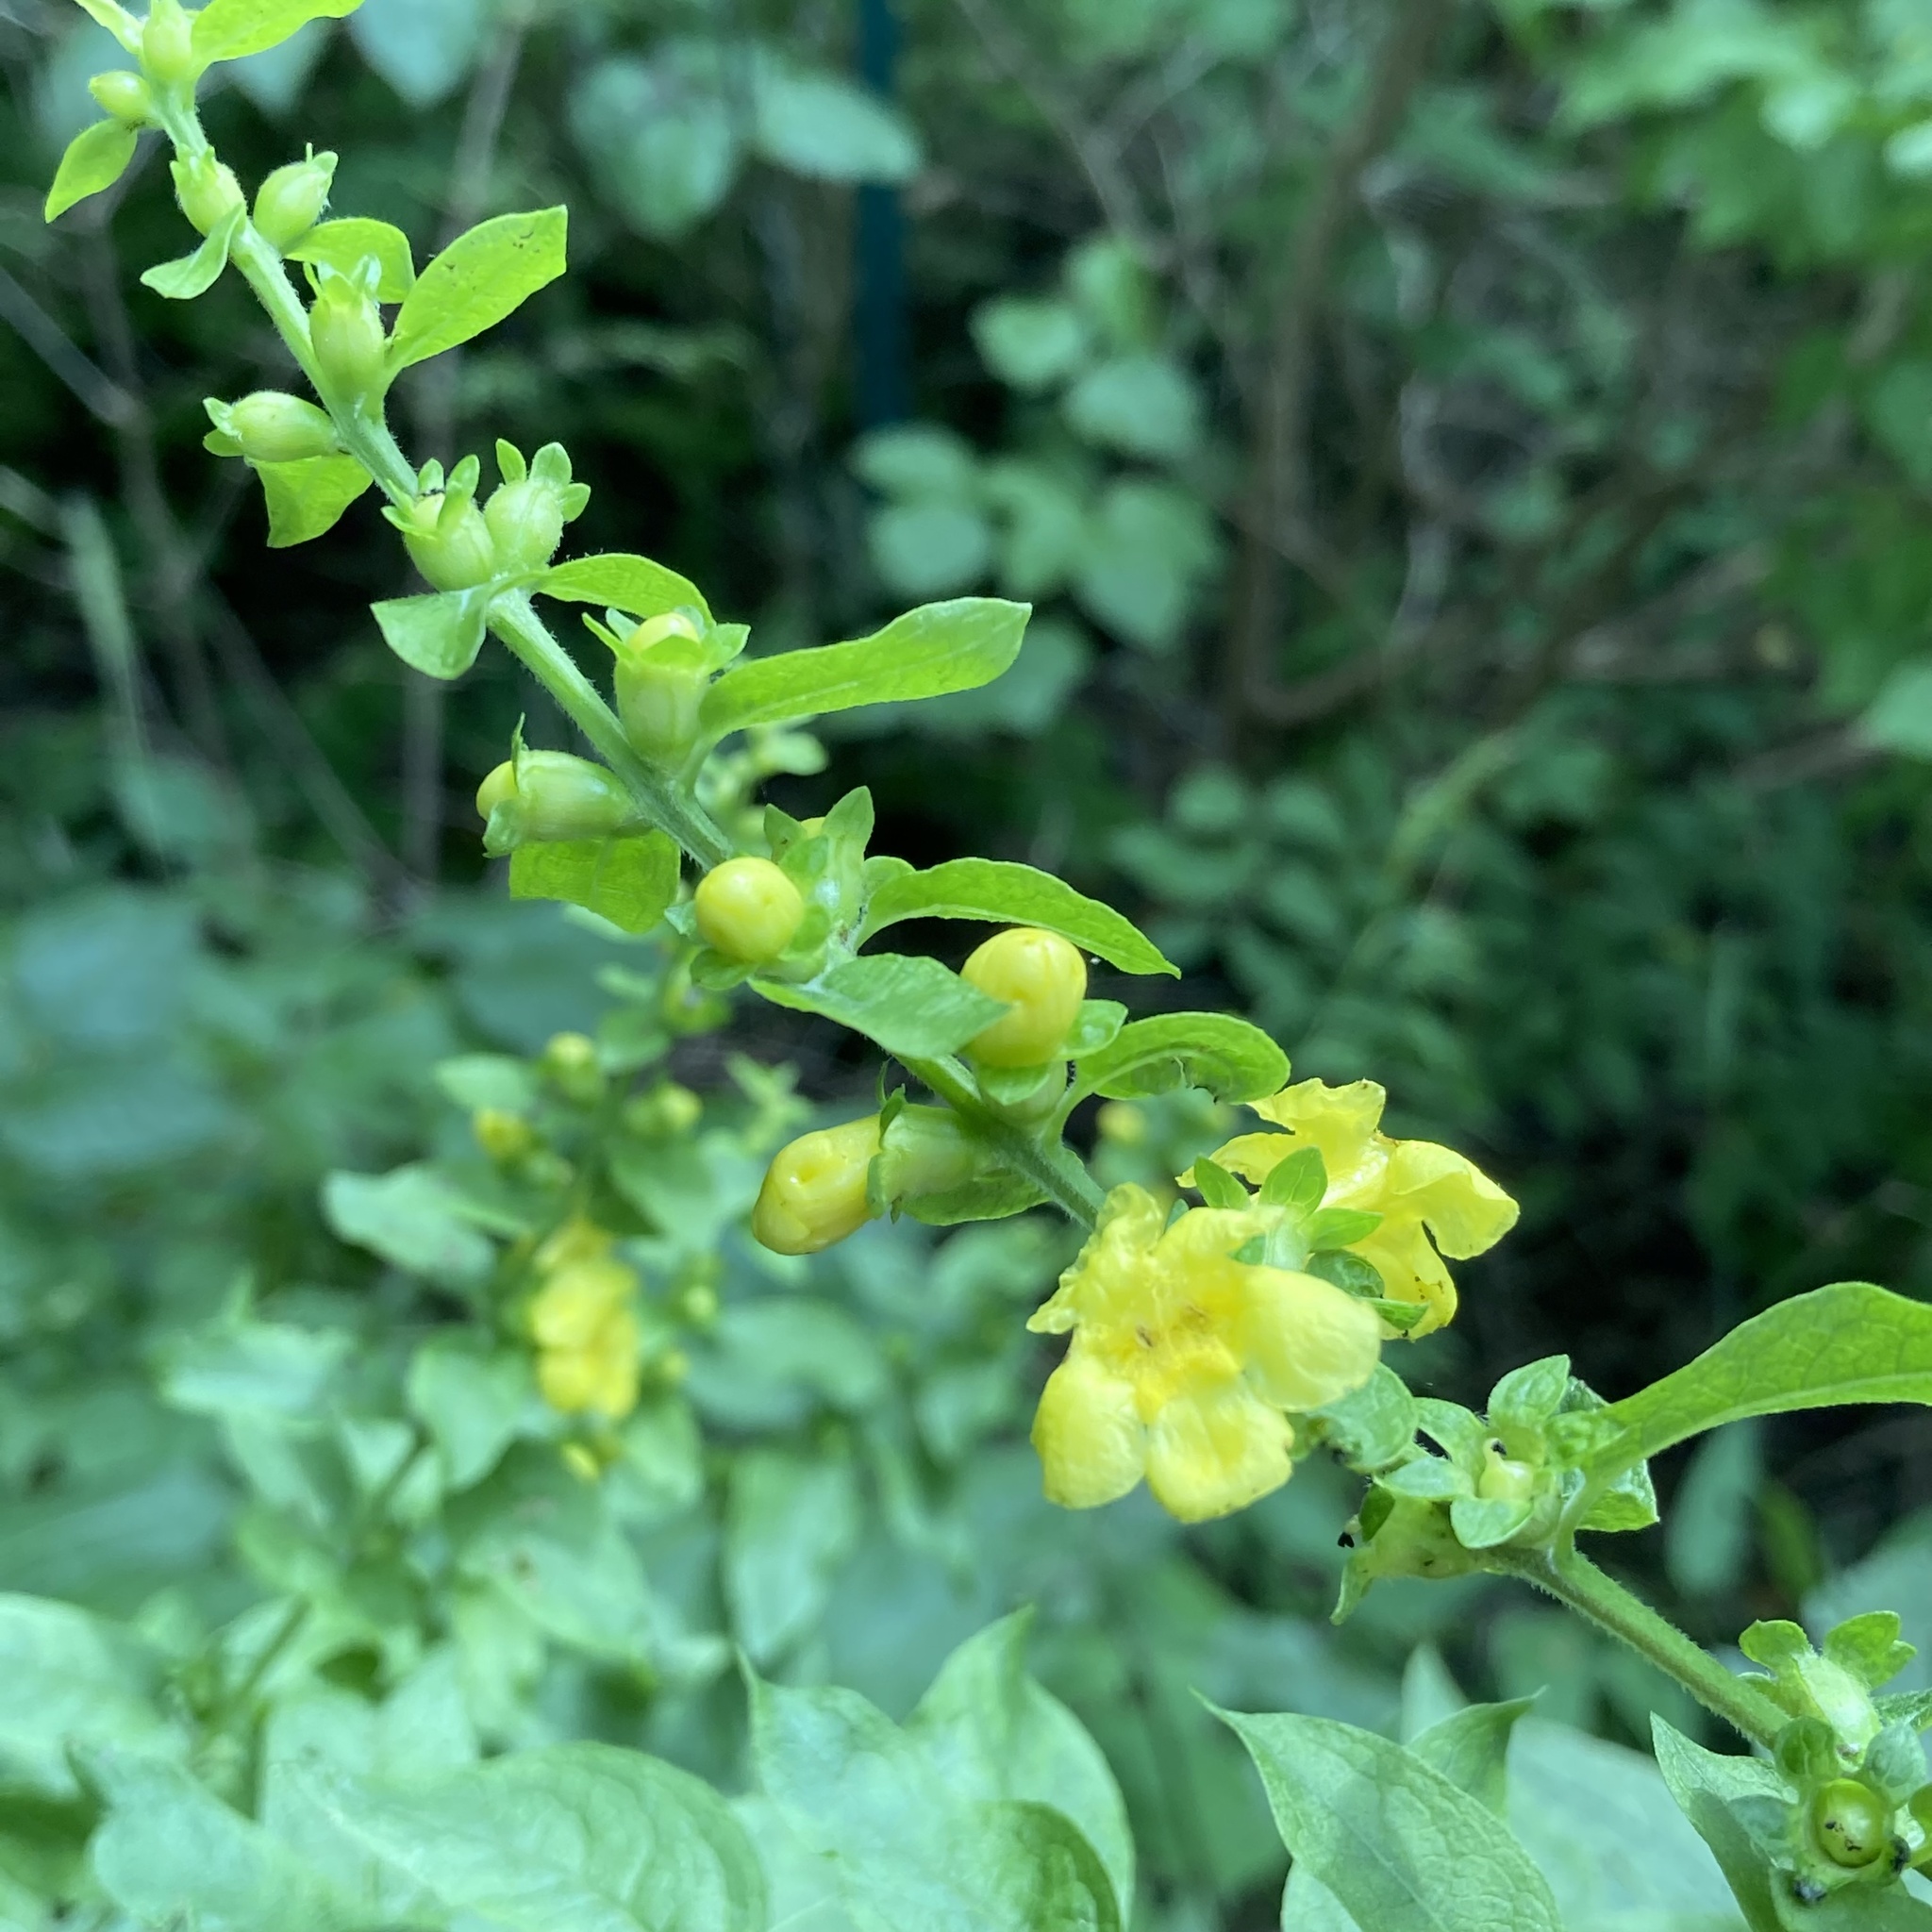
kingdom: Plantae
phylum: Tracheophyta
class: Magnoliopsida
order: Lamiales
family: Orobanchaceae
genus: Dasistoma
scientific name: Dasistoma macrophyllum
